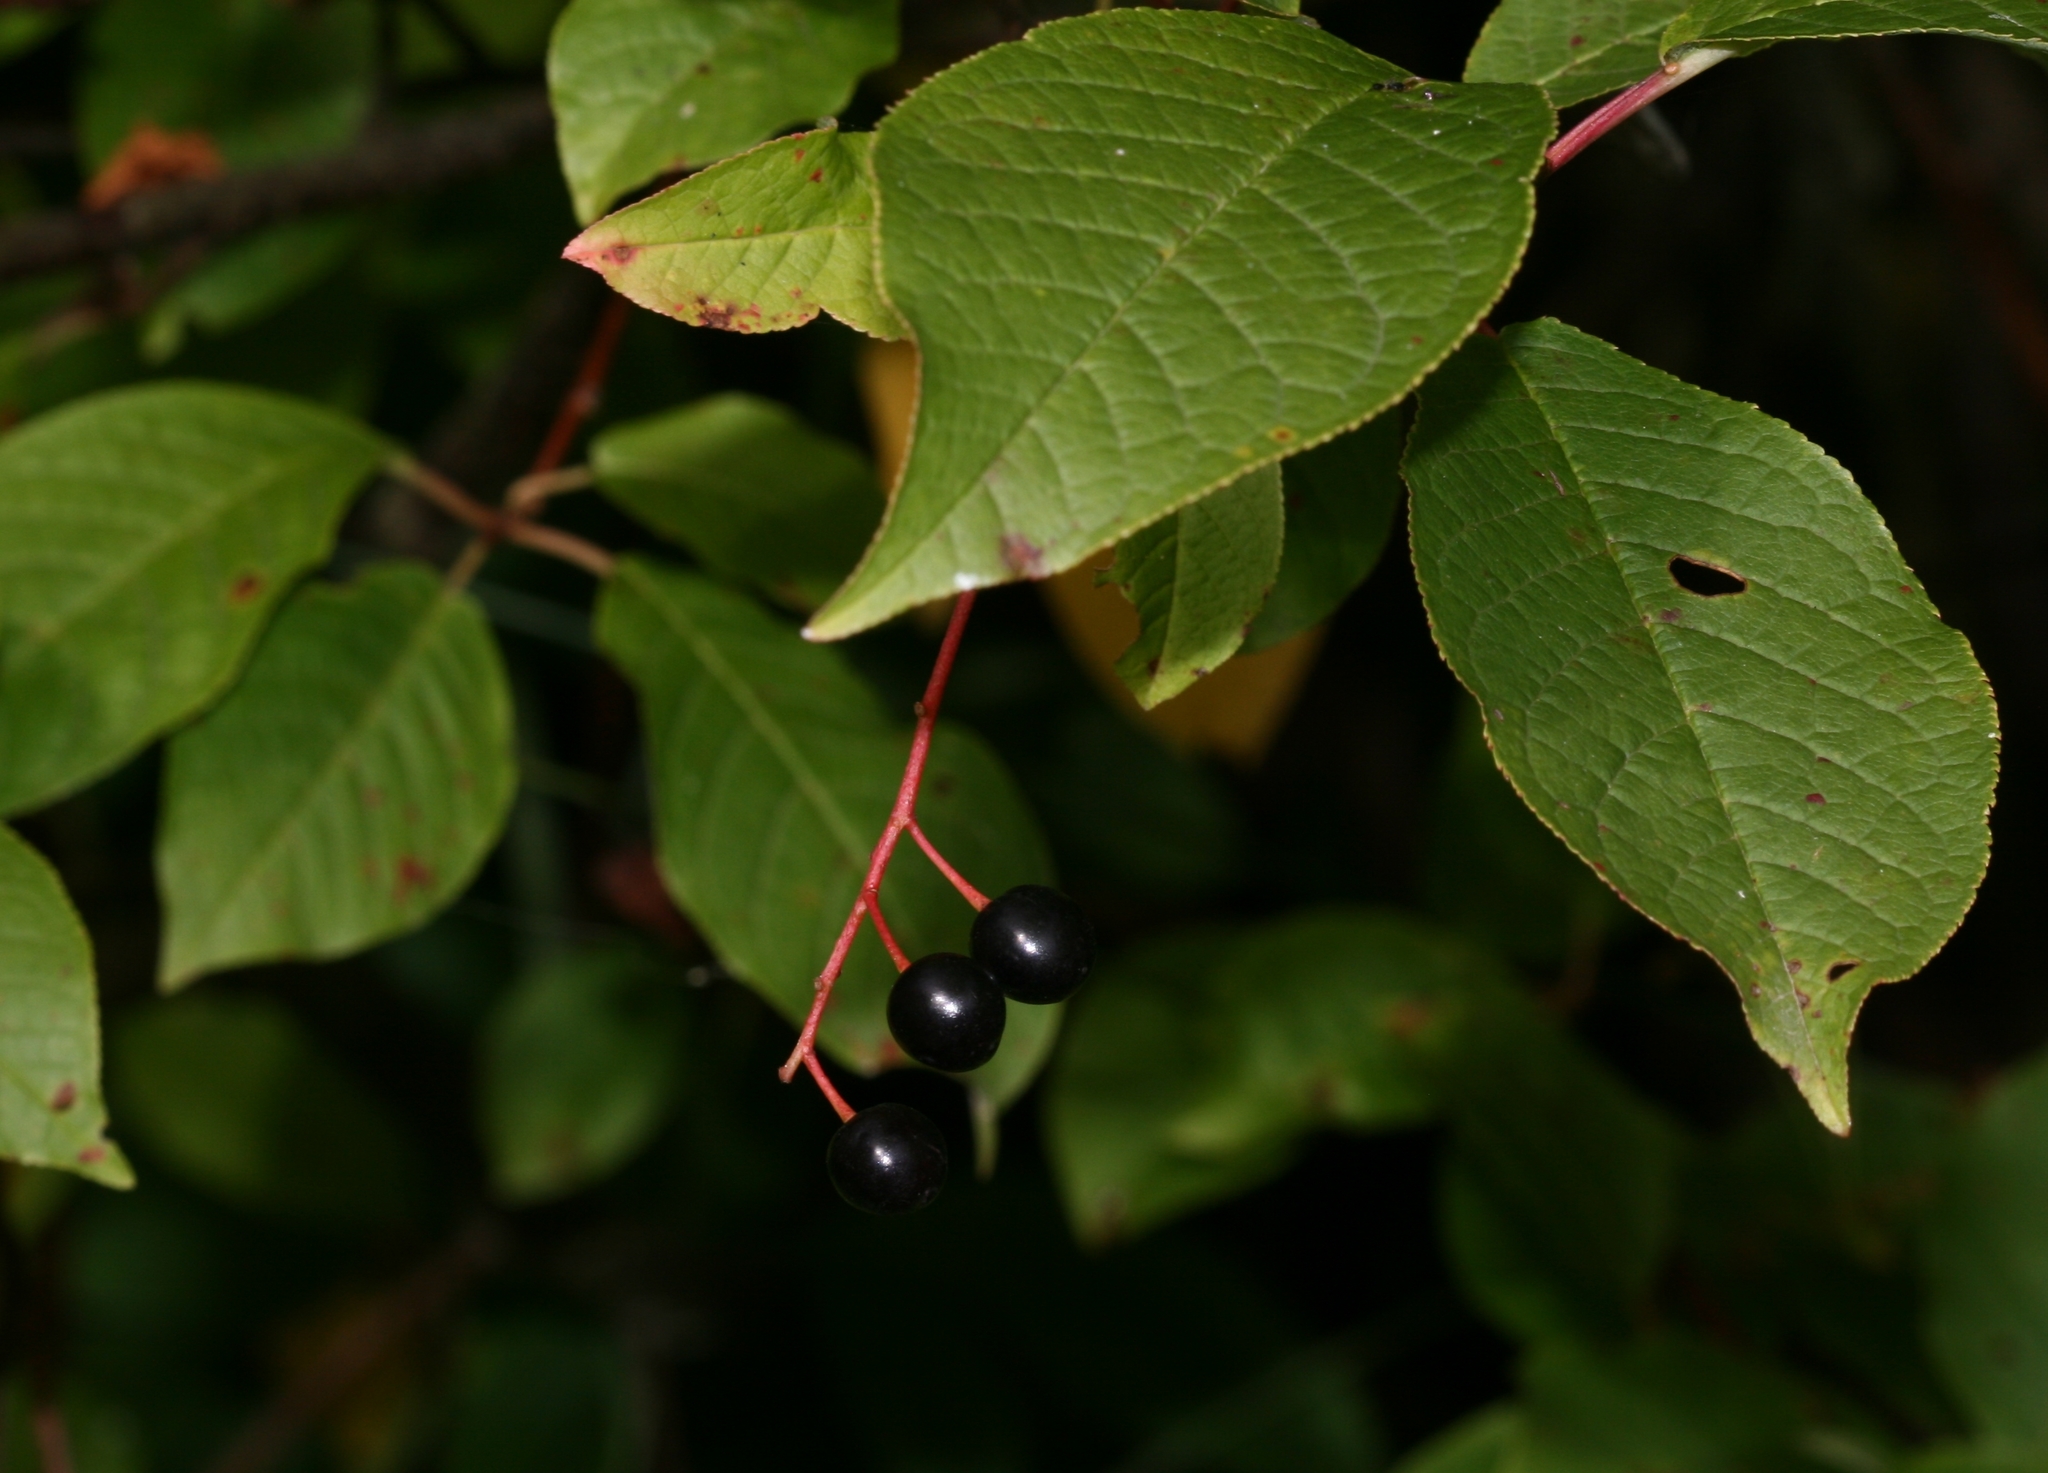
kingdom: Plantae
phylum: Tracheophyta
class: Magnoliopsida
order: Rosales
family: Rosaceae
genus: Prunus
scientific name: Prunus padus
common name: Bird cherry
